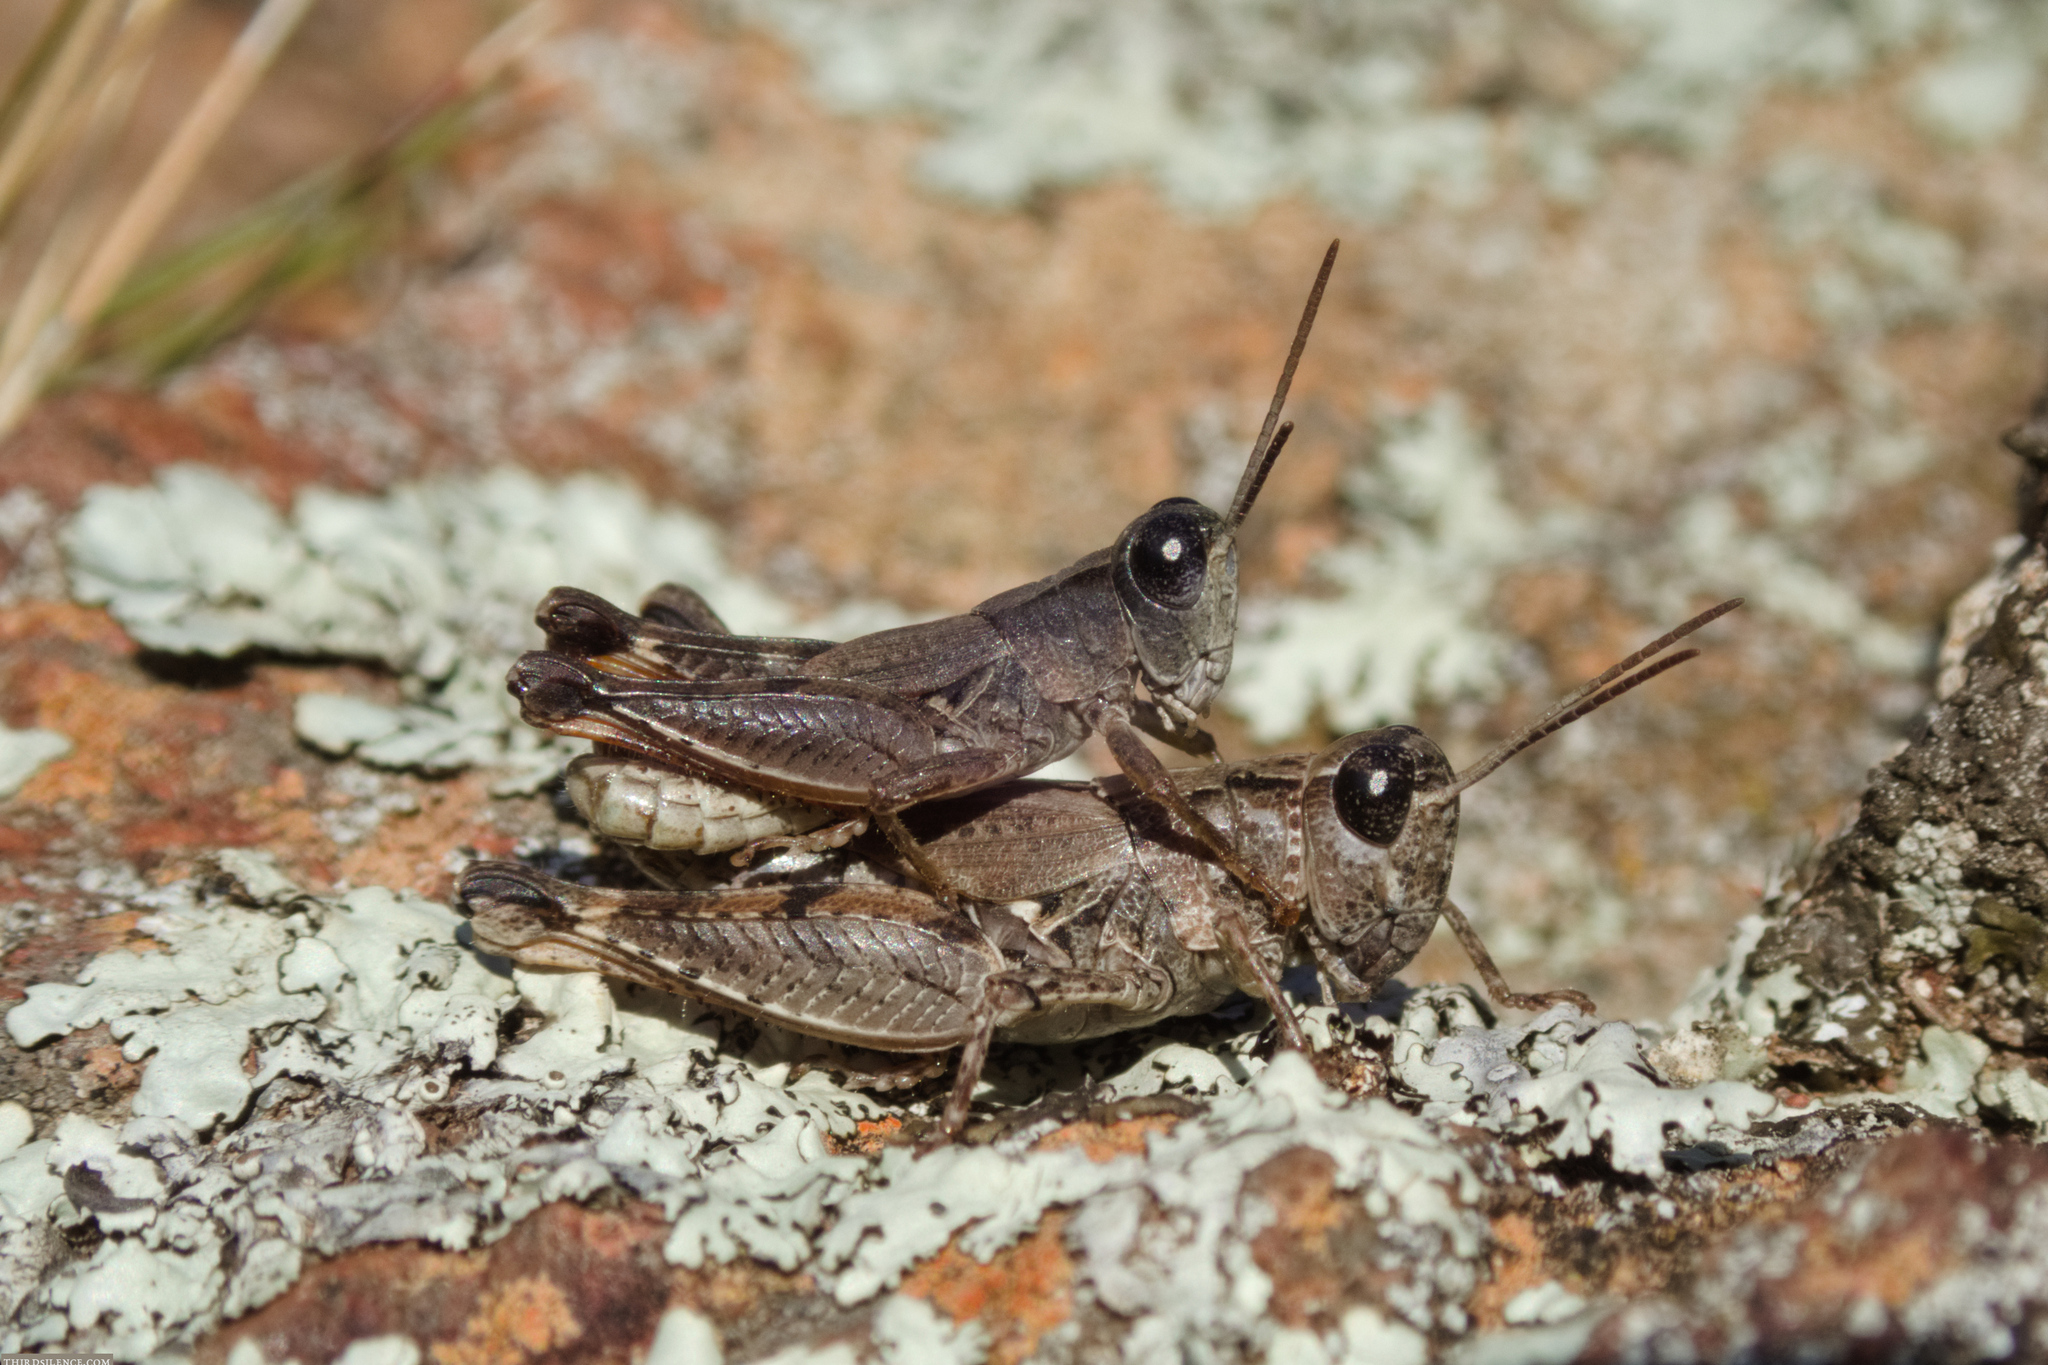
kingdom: Animalia
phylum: Arthropoda
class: Insecta
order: Orthoptera
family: Acrididae
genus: Phaulacridium
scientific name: Phaulacridium vittatum
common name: Wingless grasshopper
